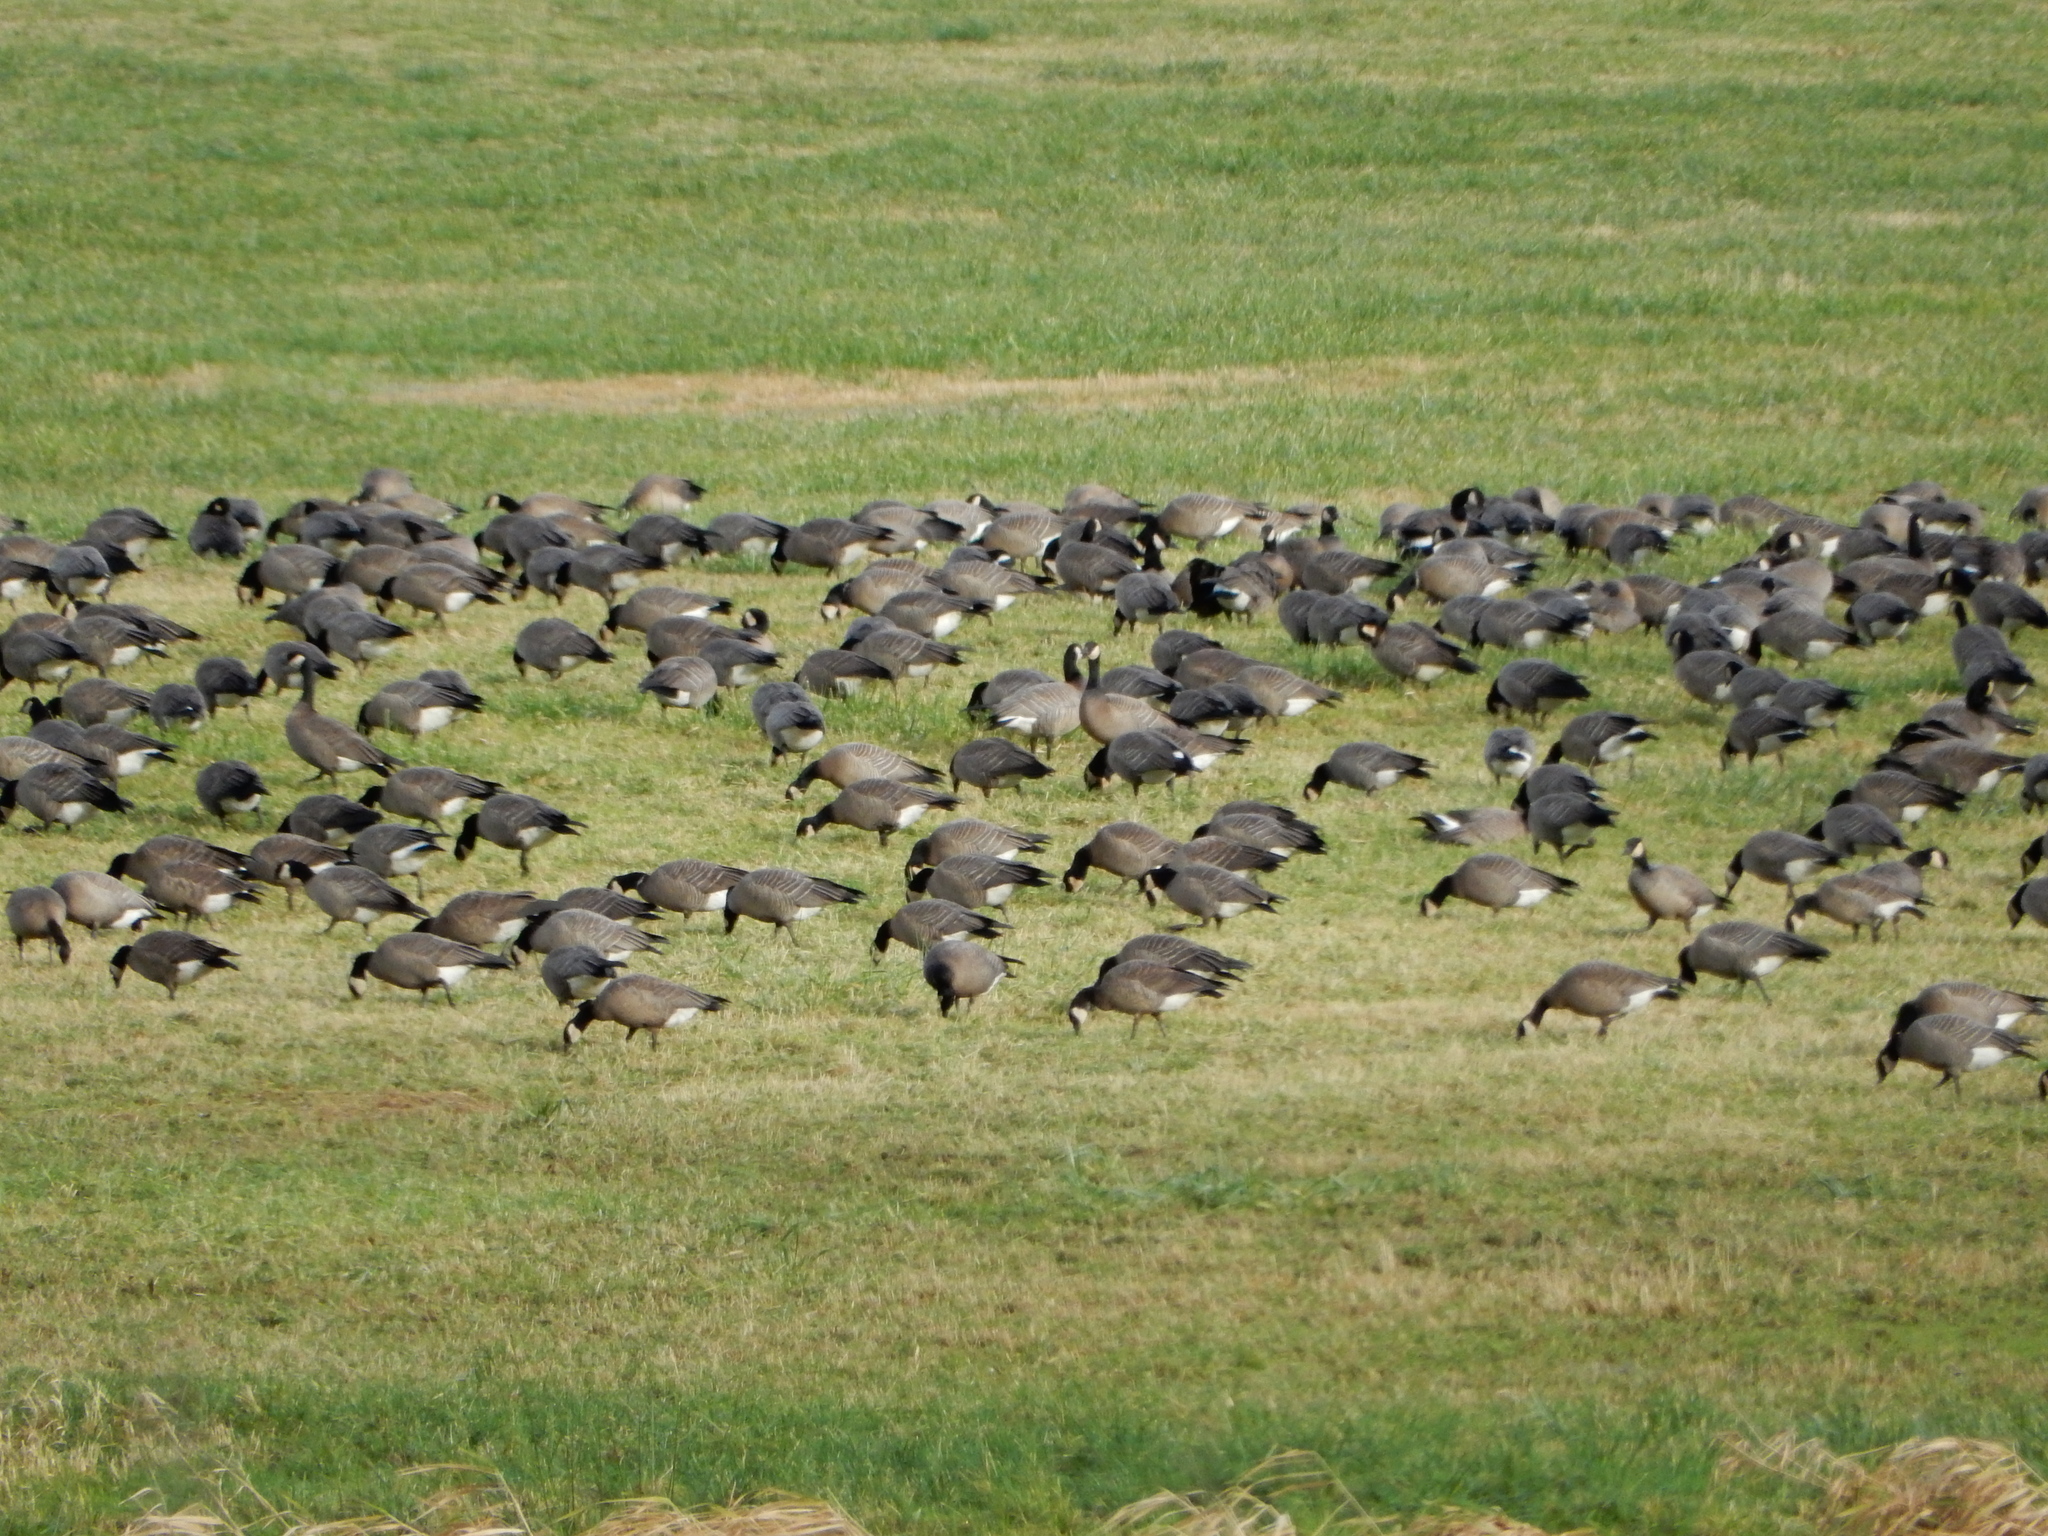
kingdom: Animalia
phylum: Chordata
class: Aves
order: Anseriformes
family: Anatidae
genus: Branta
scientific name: Branta canadensis
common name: Canada goose
